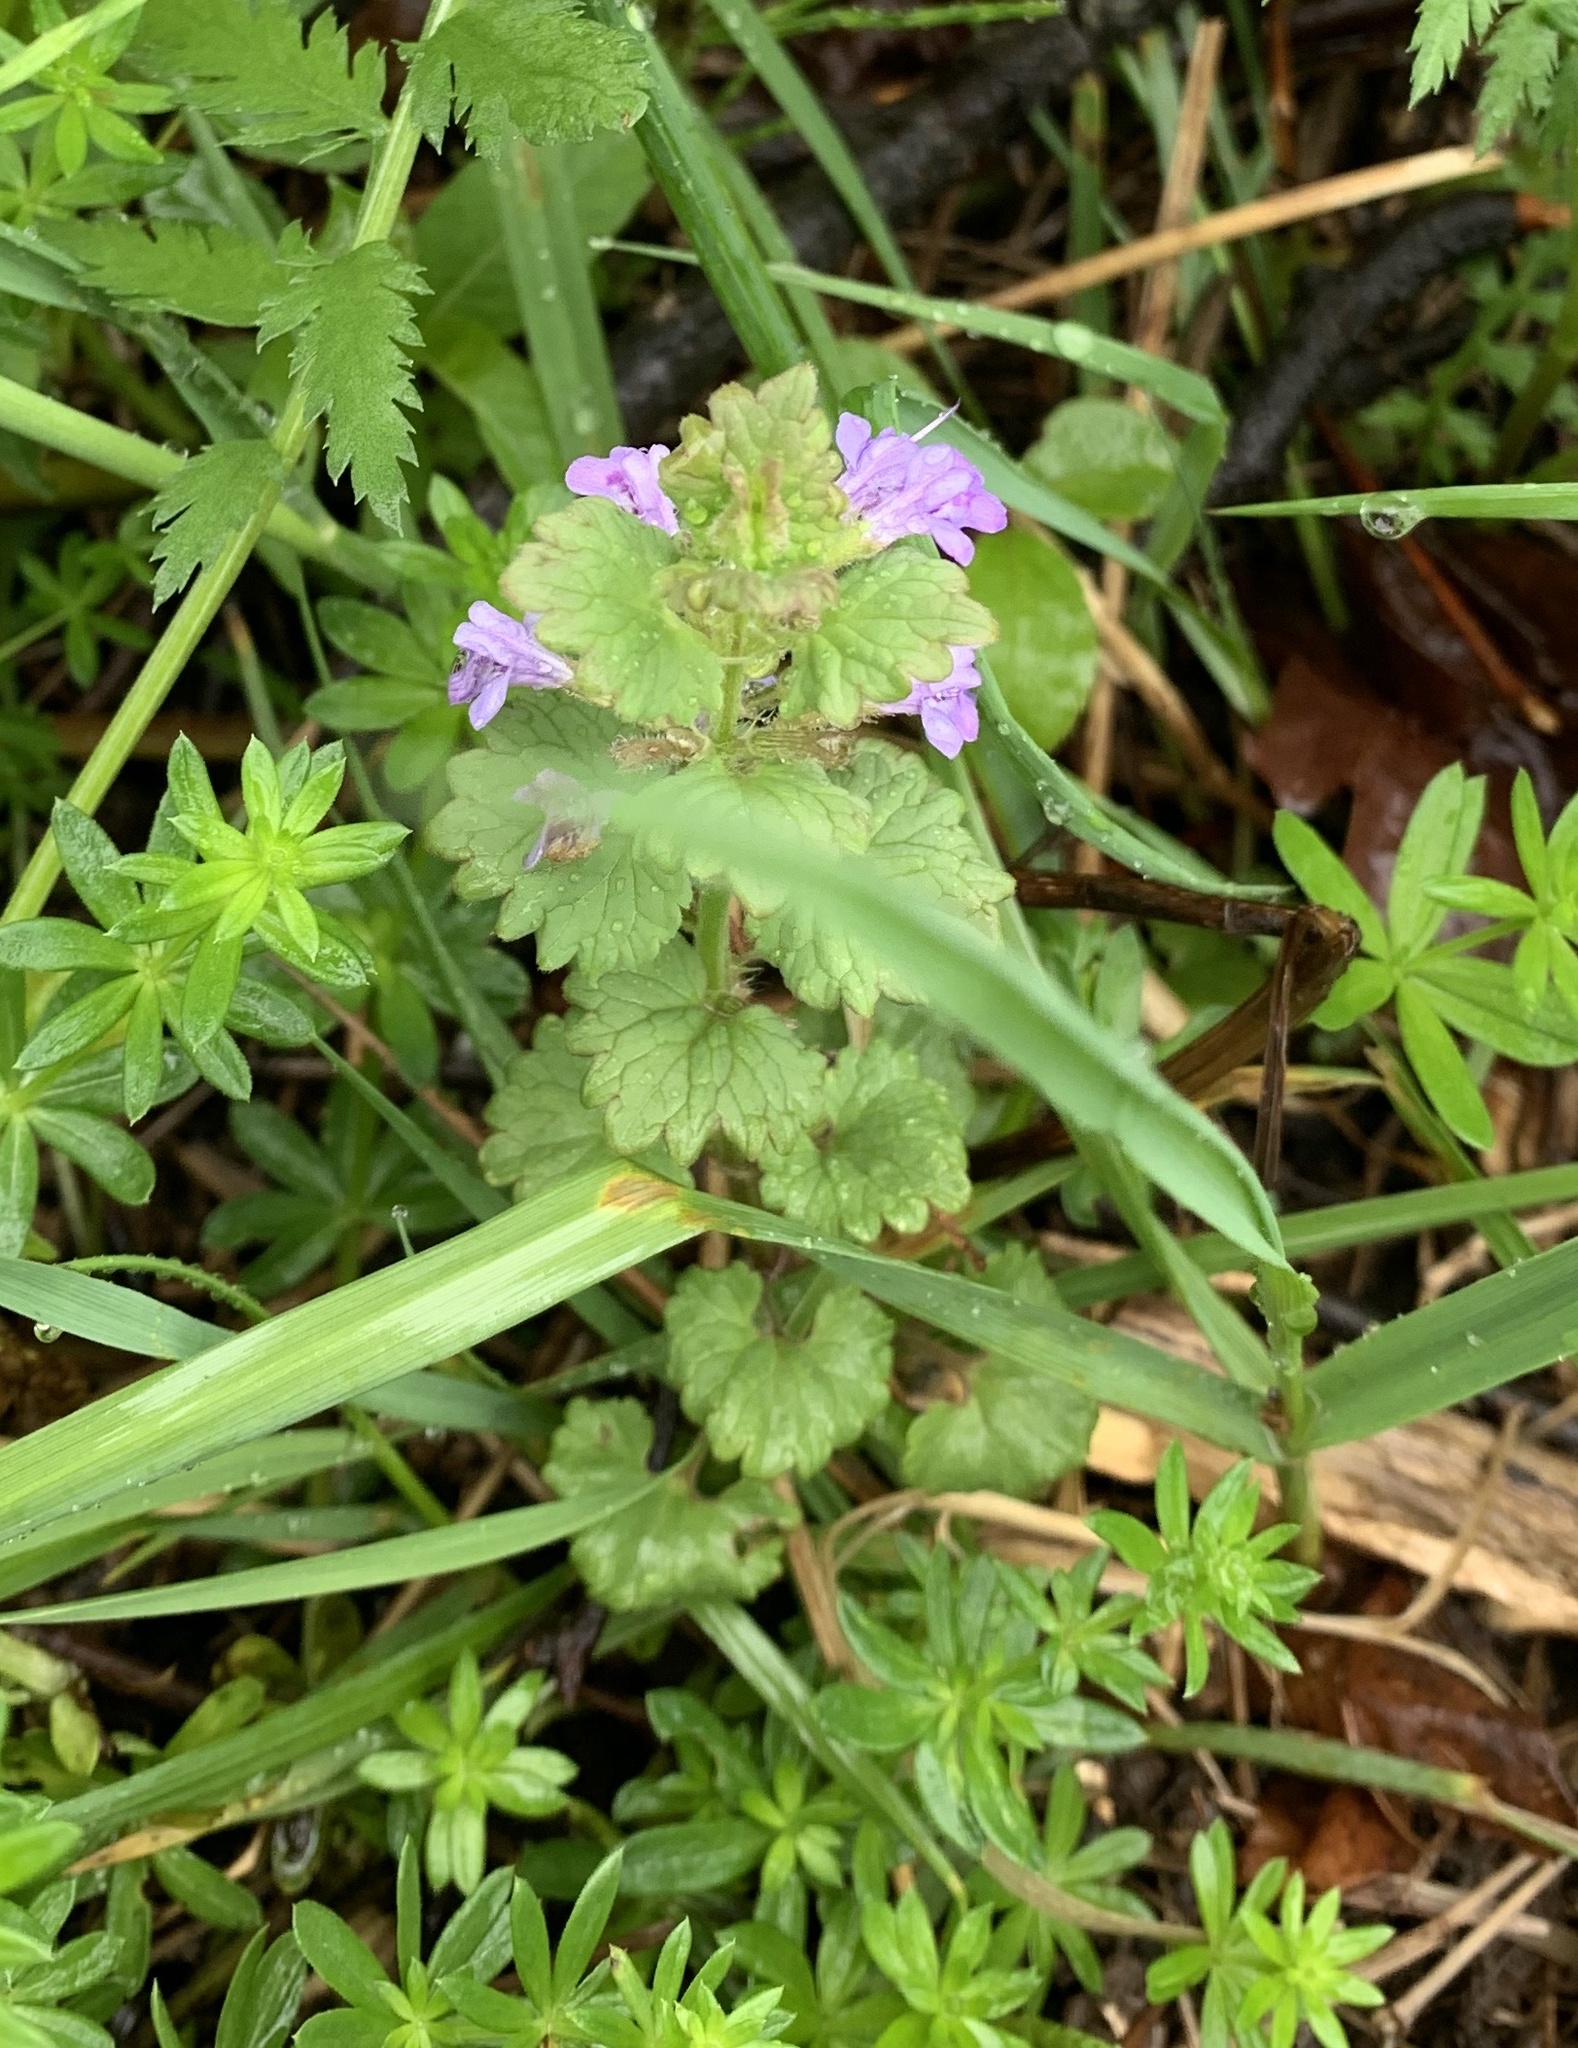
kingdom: Plantae
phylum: Tracheophyta
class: Magnoliopsida
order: Lamiales
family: Lamiaceae
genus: Glechoma
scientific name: Glechoma hederacea
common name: Ground ivy
